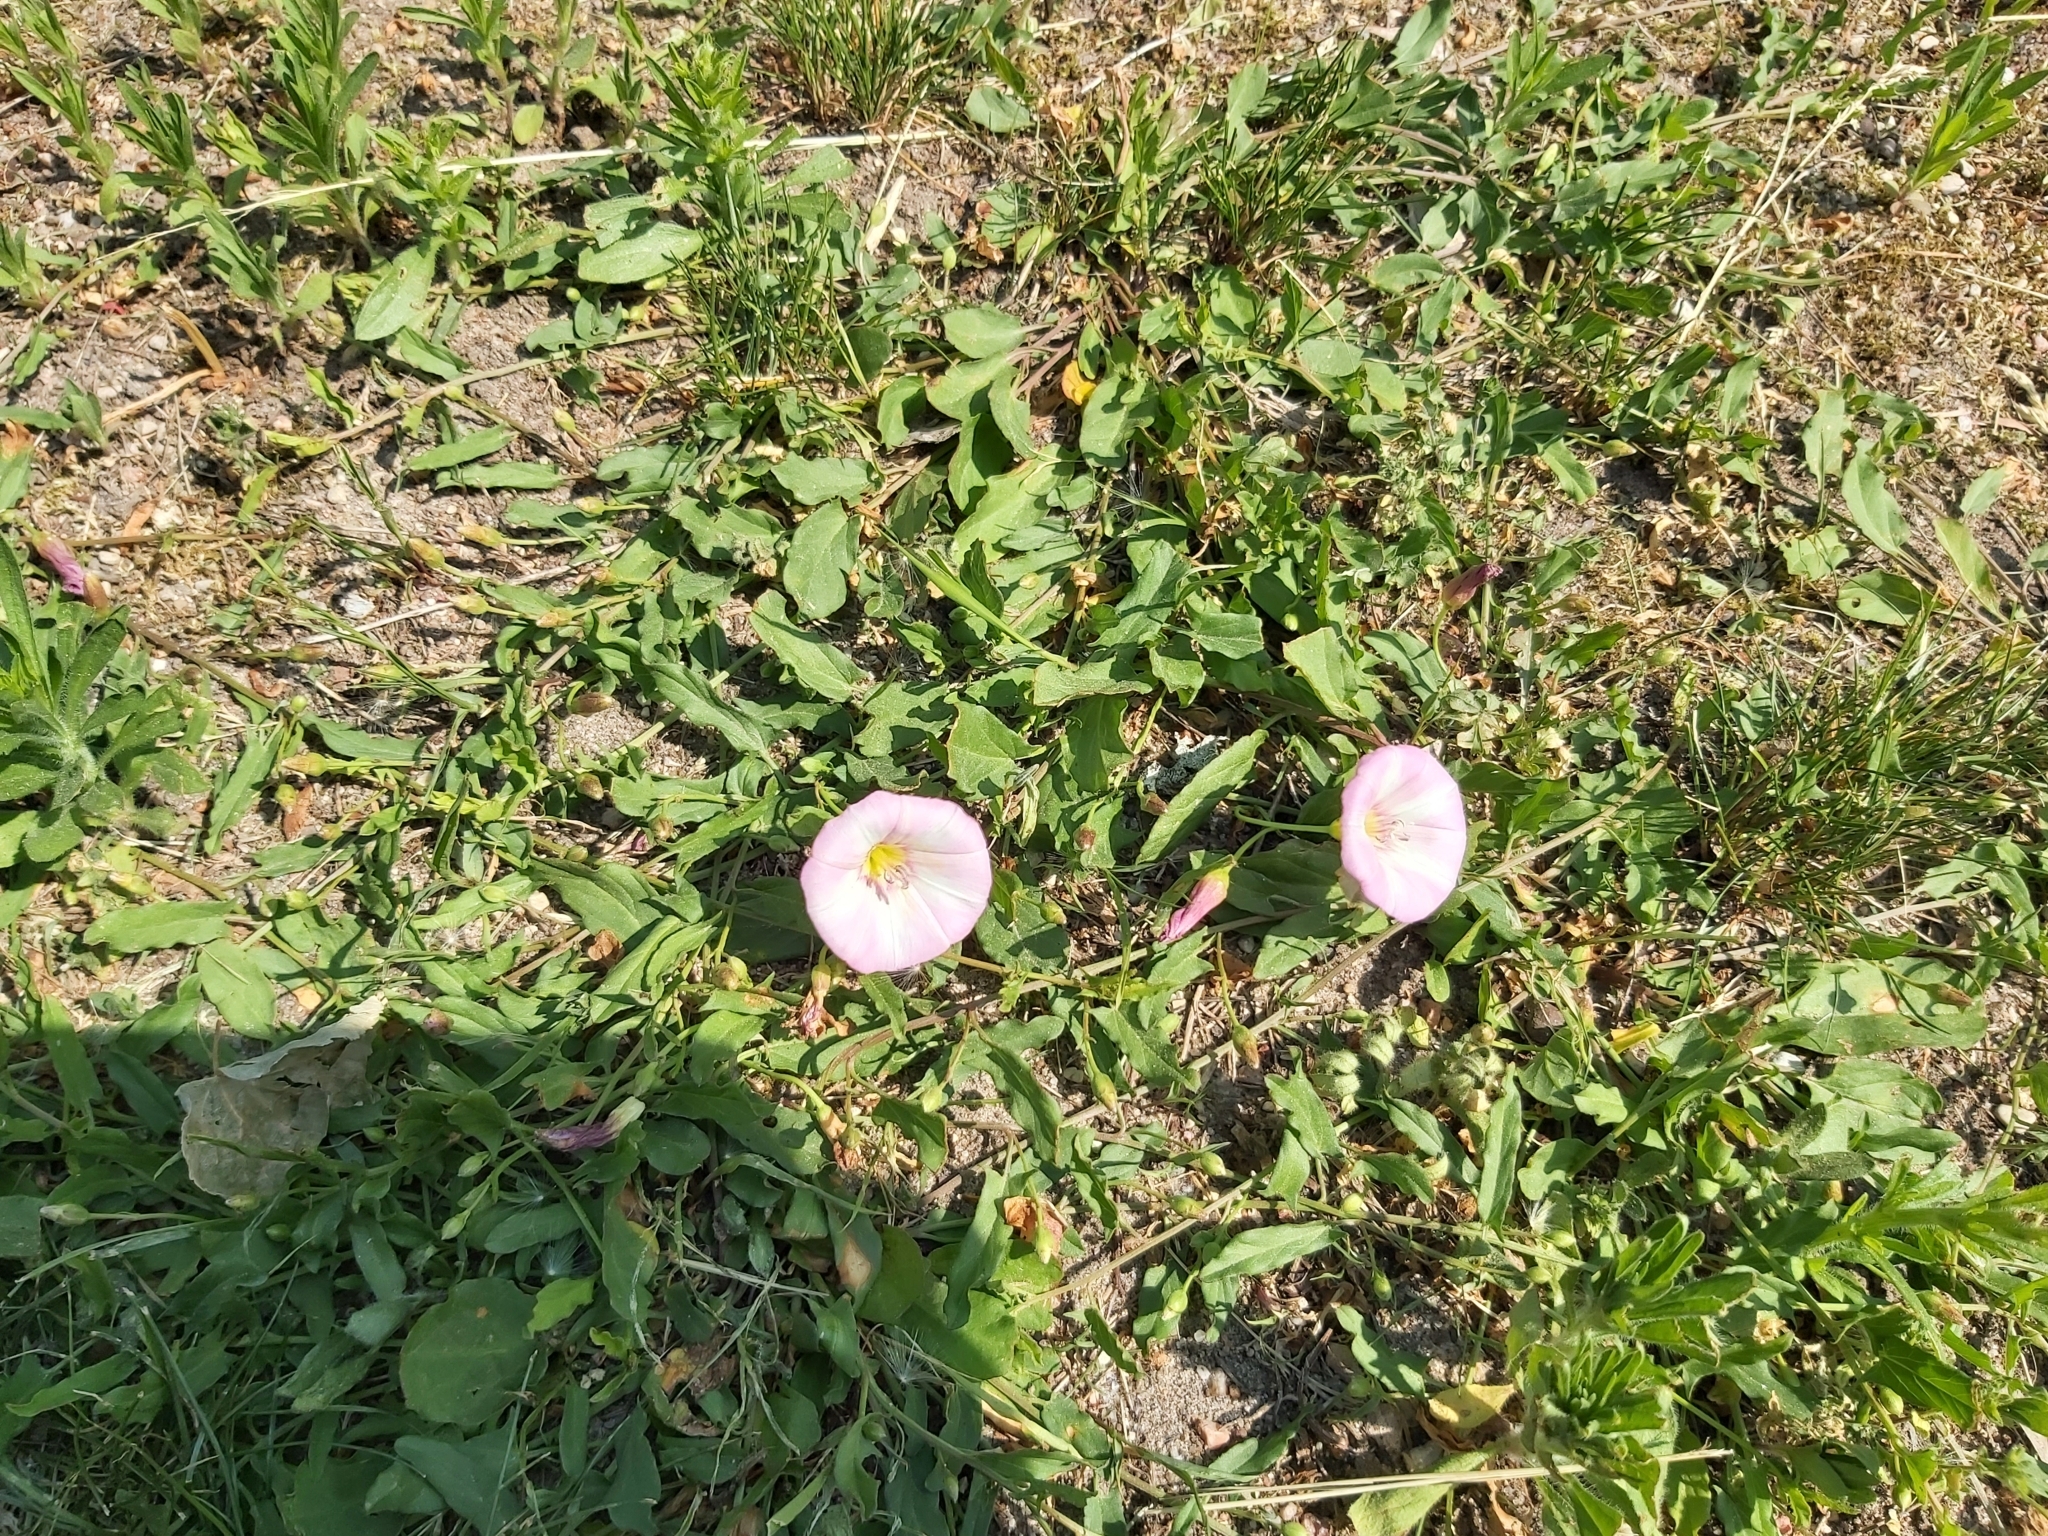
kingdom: Plantae
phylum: Tracheophyta
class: Magnoliopsida
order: Solanales
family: Convolvulaceae
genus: Convolvulus
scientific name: Convolvulus arvensis
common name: Field bindweed
